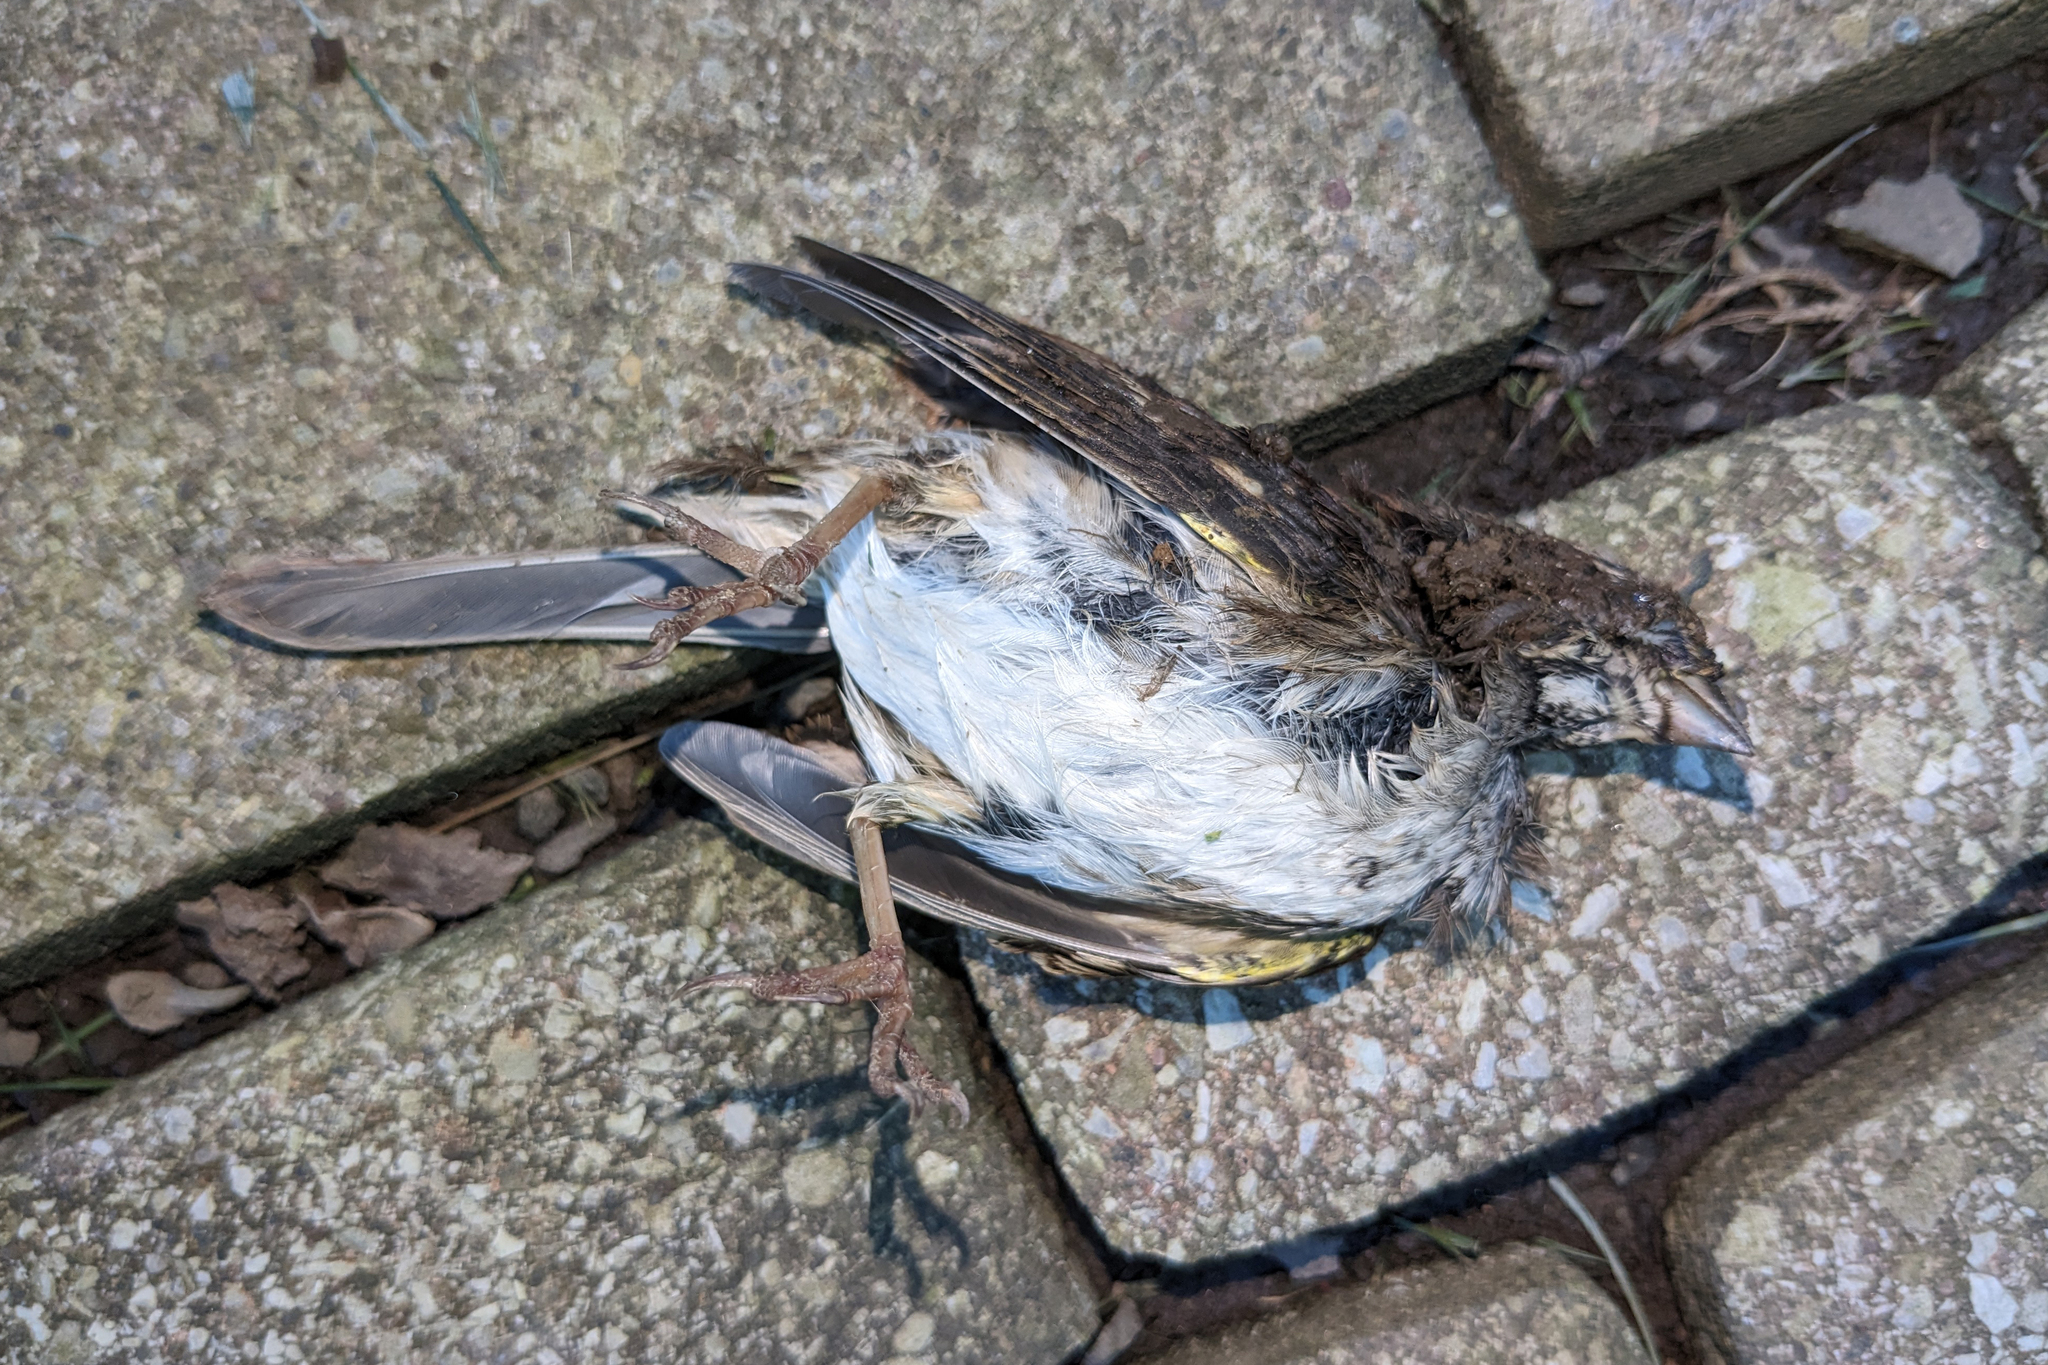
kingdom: Animalia
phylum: Chordata
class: Aves
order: Passeriformes
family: Passerellidae
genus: Zonotrichia
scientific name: Zonotrichia albicollis
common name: White-throated sparrow
